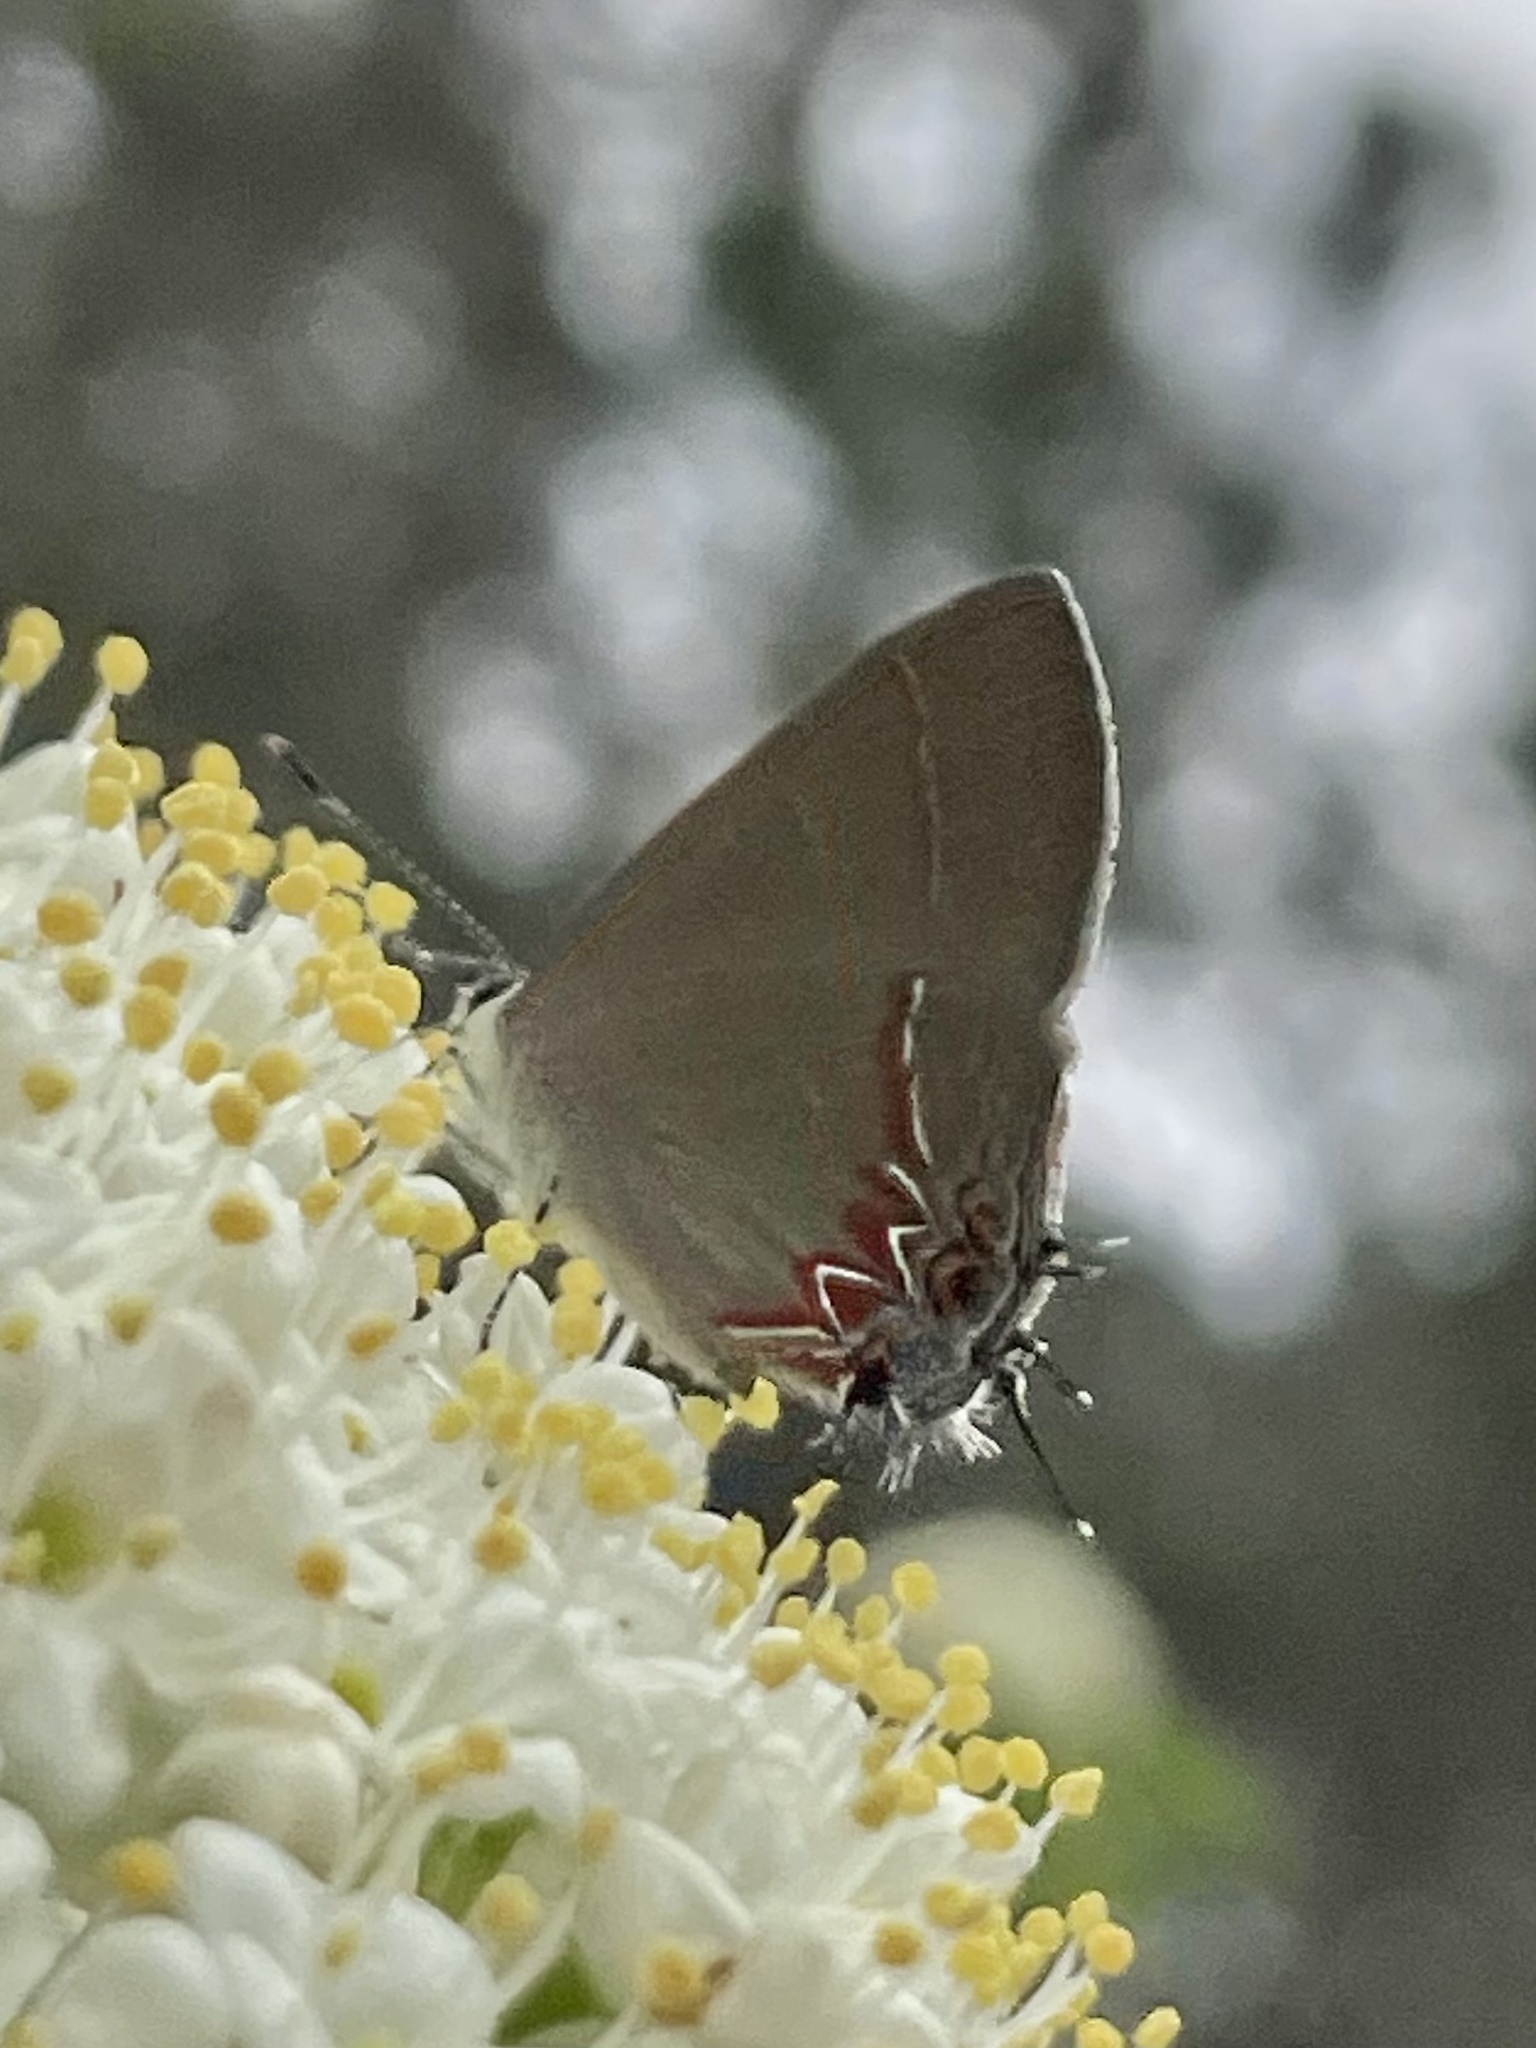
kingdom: Animalia
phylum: Arthropoda
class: Insecta
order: Lepidoptera
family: Lycaenidae
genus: Calycopis
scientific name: Calycopis isobeon
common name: Dusky-blue groundstreak
